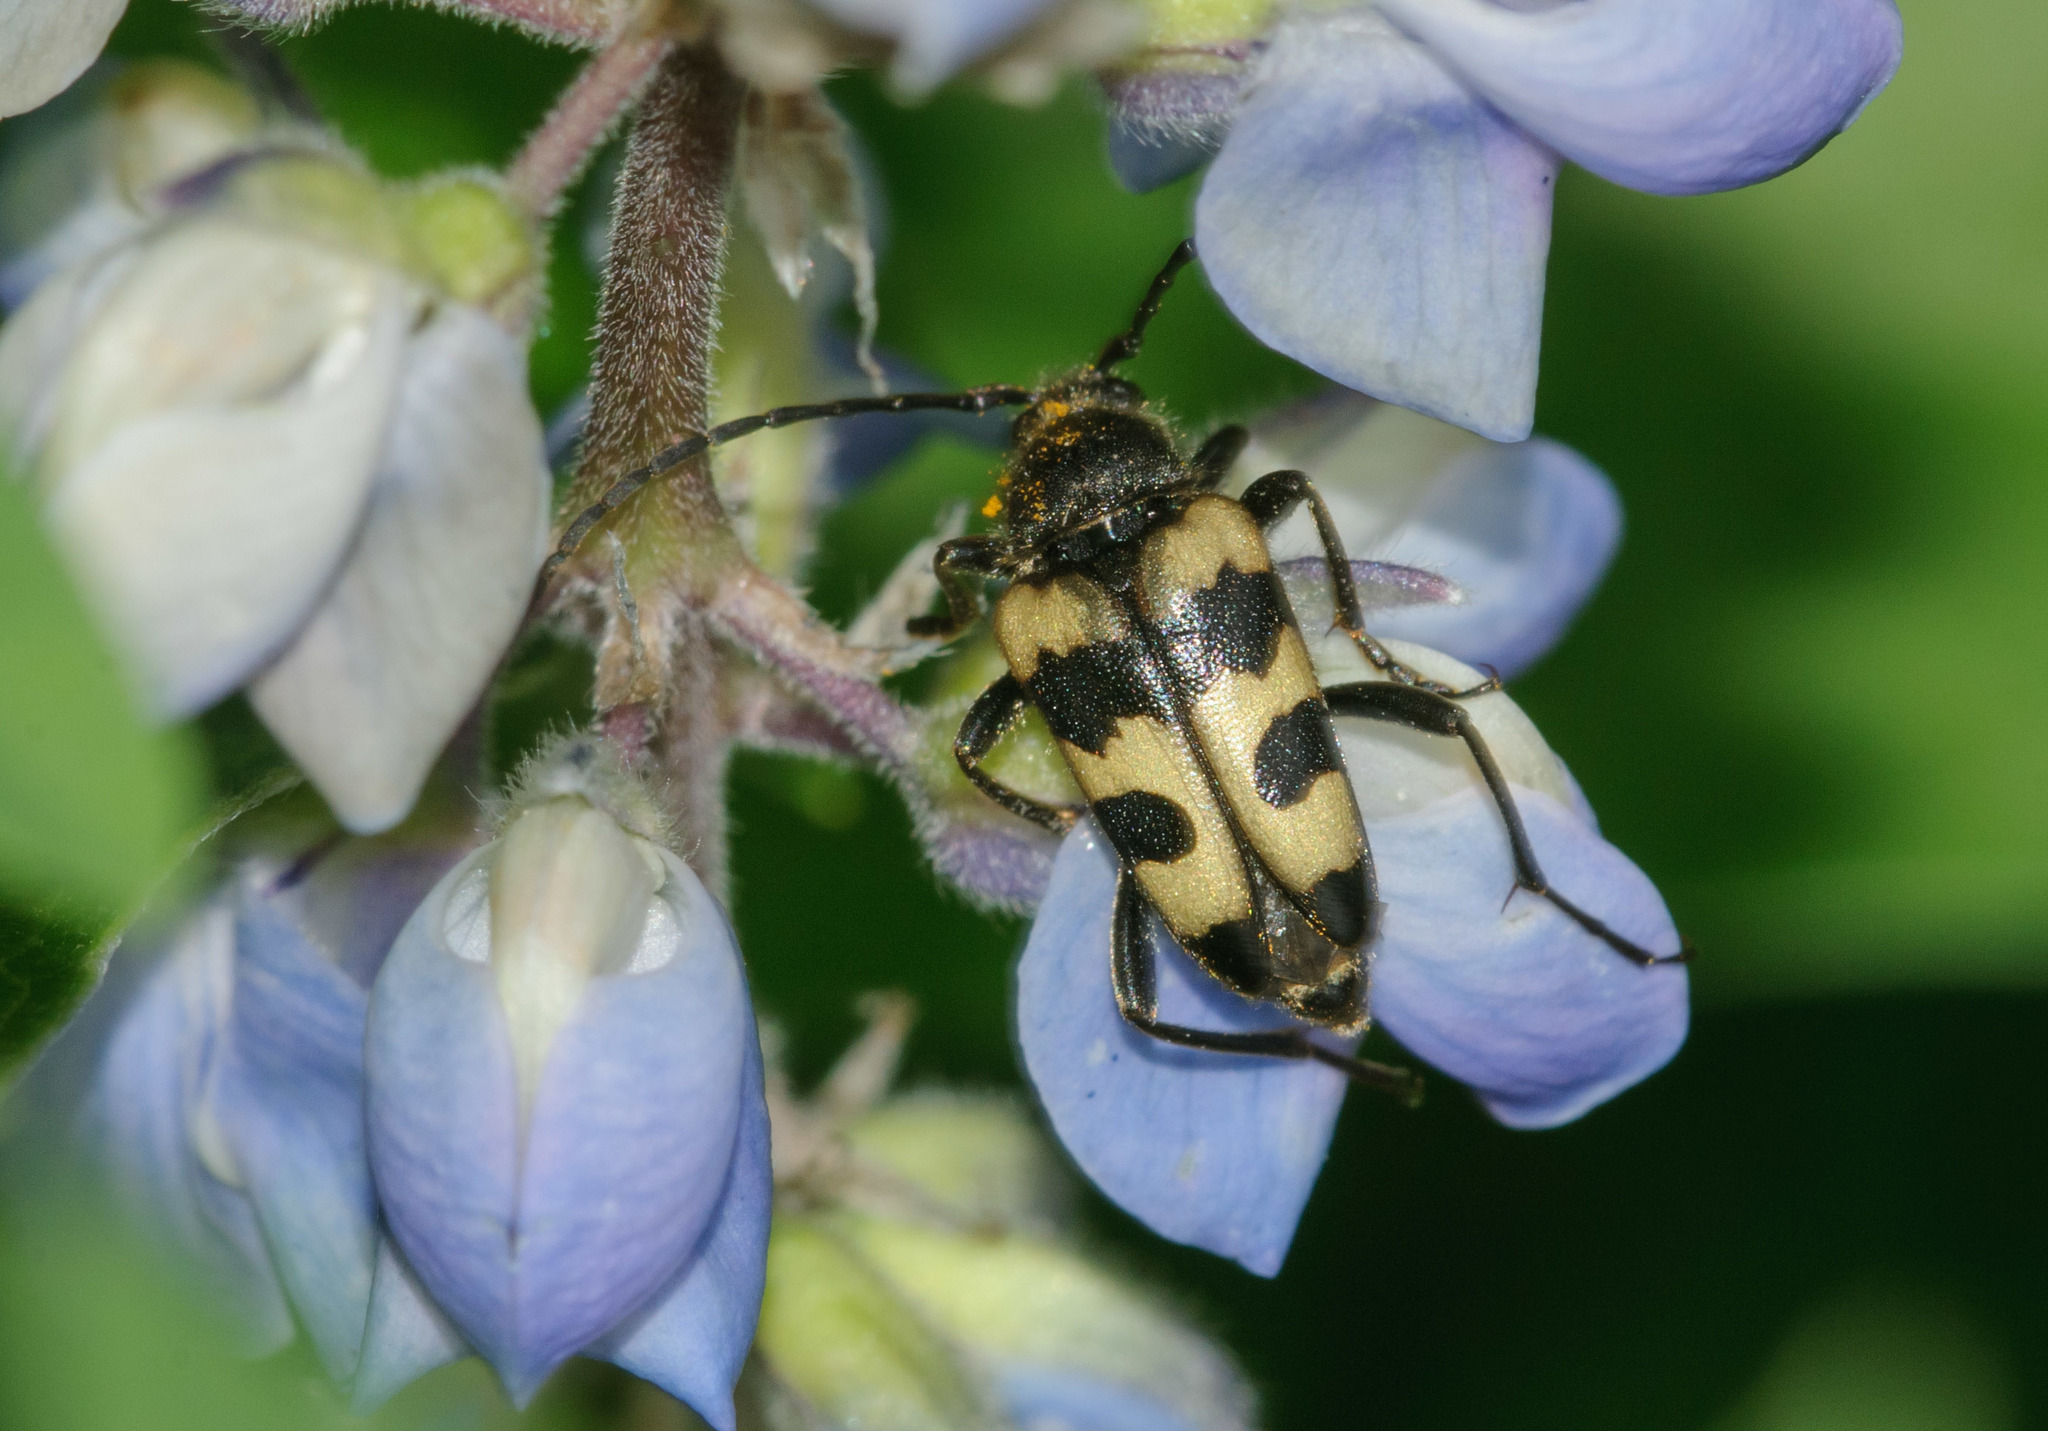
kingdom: Animalia
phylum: Arthropoda
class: Insecta
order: Coleoptera
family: Cerambycidae
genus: Judolia
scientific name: Judolia instabilis
